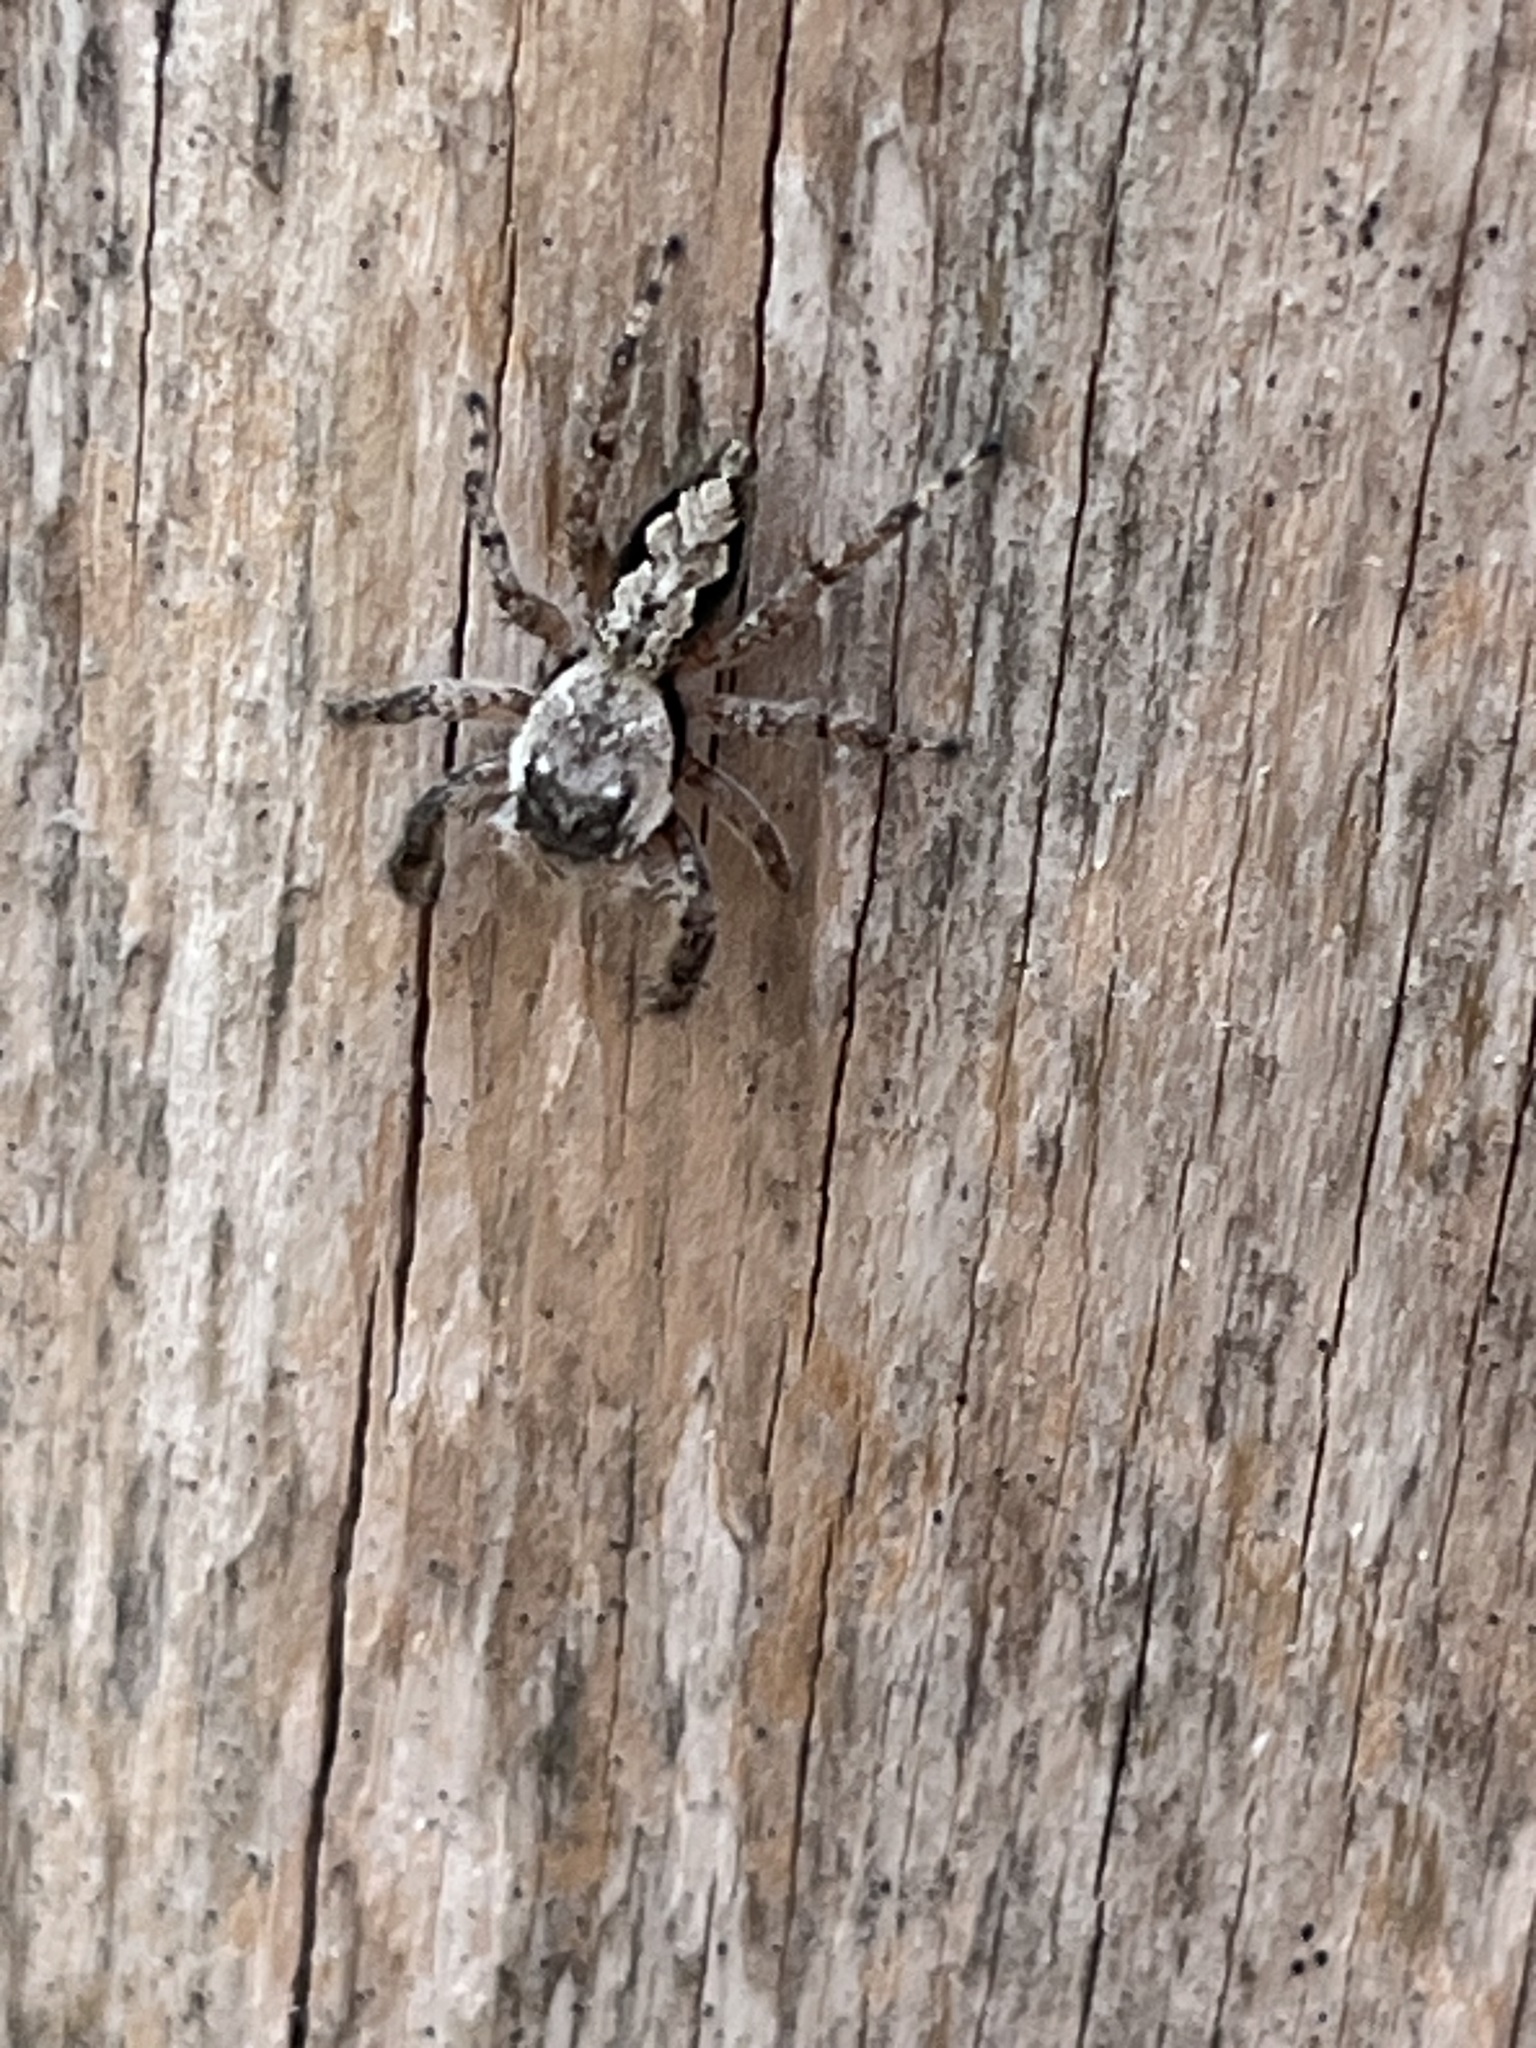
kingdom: Animalia
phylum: Arthropoda
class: Arachnida
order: Araneae
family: Salticidae
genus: Platycryptus
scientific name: Platycryptus undatus
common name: Tan jumping spider
